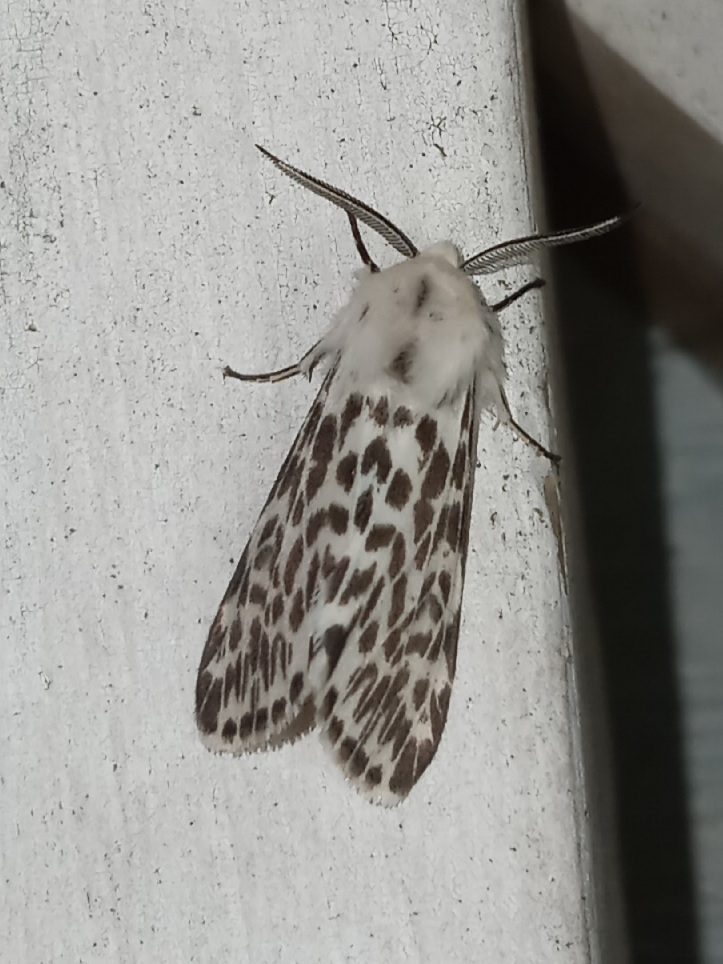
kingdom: Animalia
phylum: Arthropoda
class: Insecta
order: Lepidoptera
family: Erebidae
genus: Hyphantria
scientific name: Hyphantria cunea
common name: American white moth
